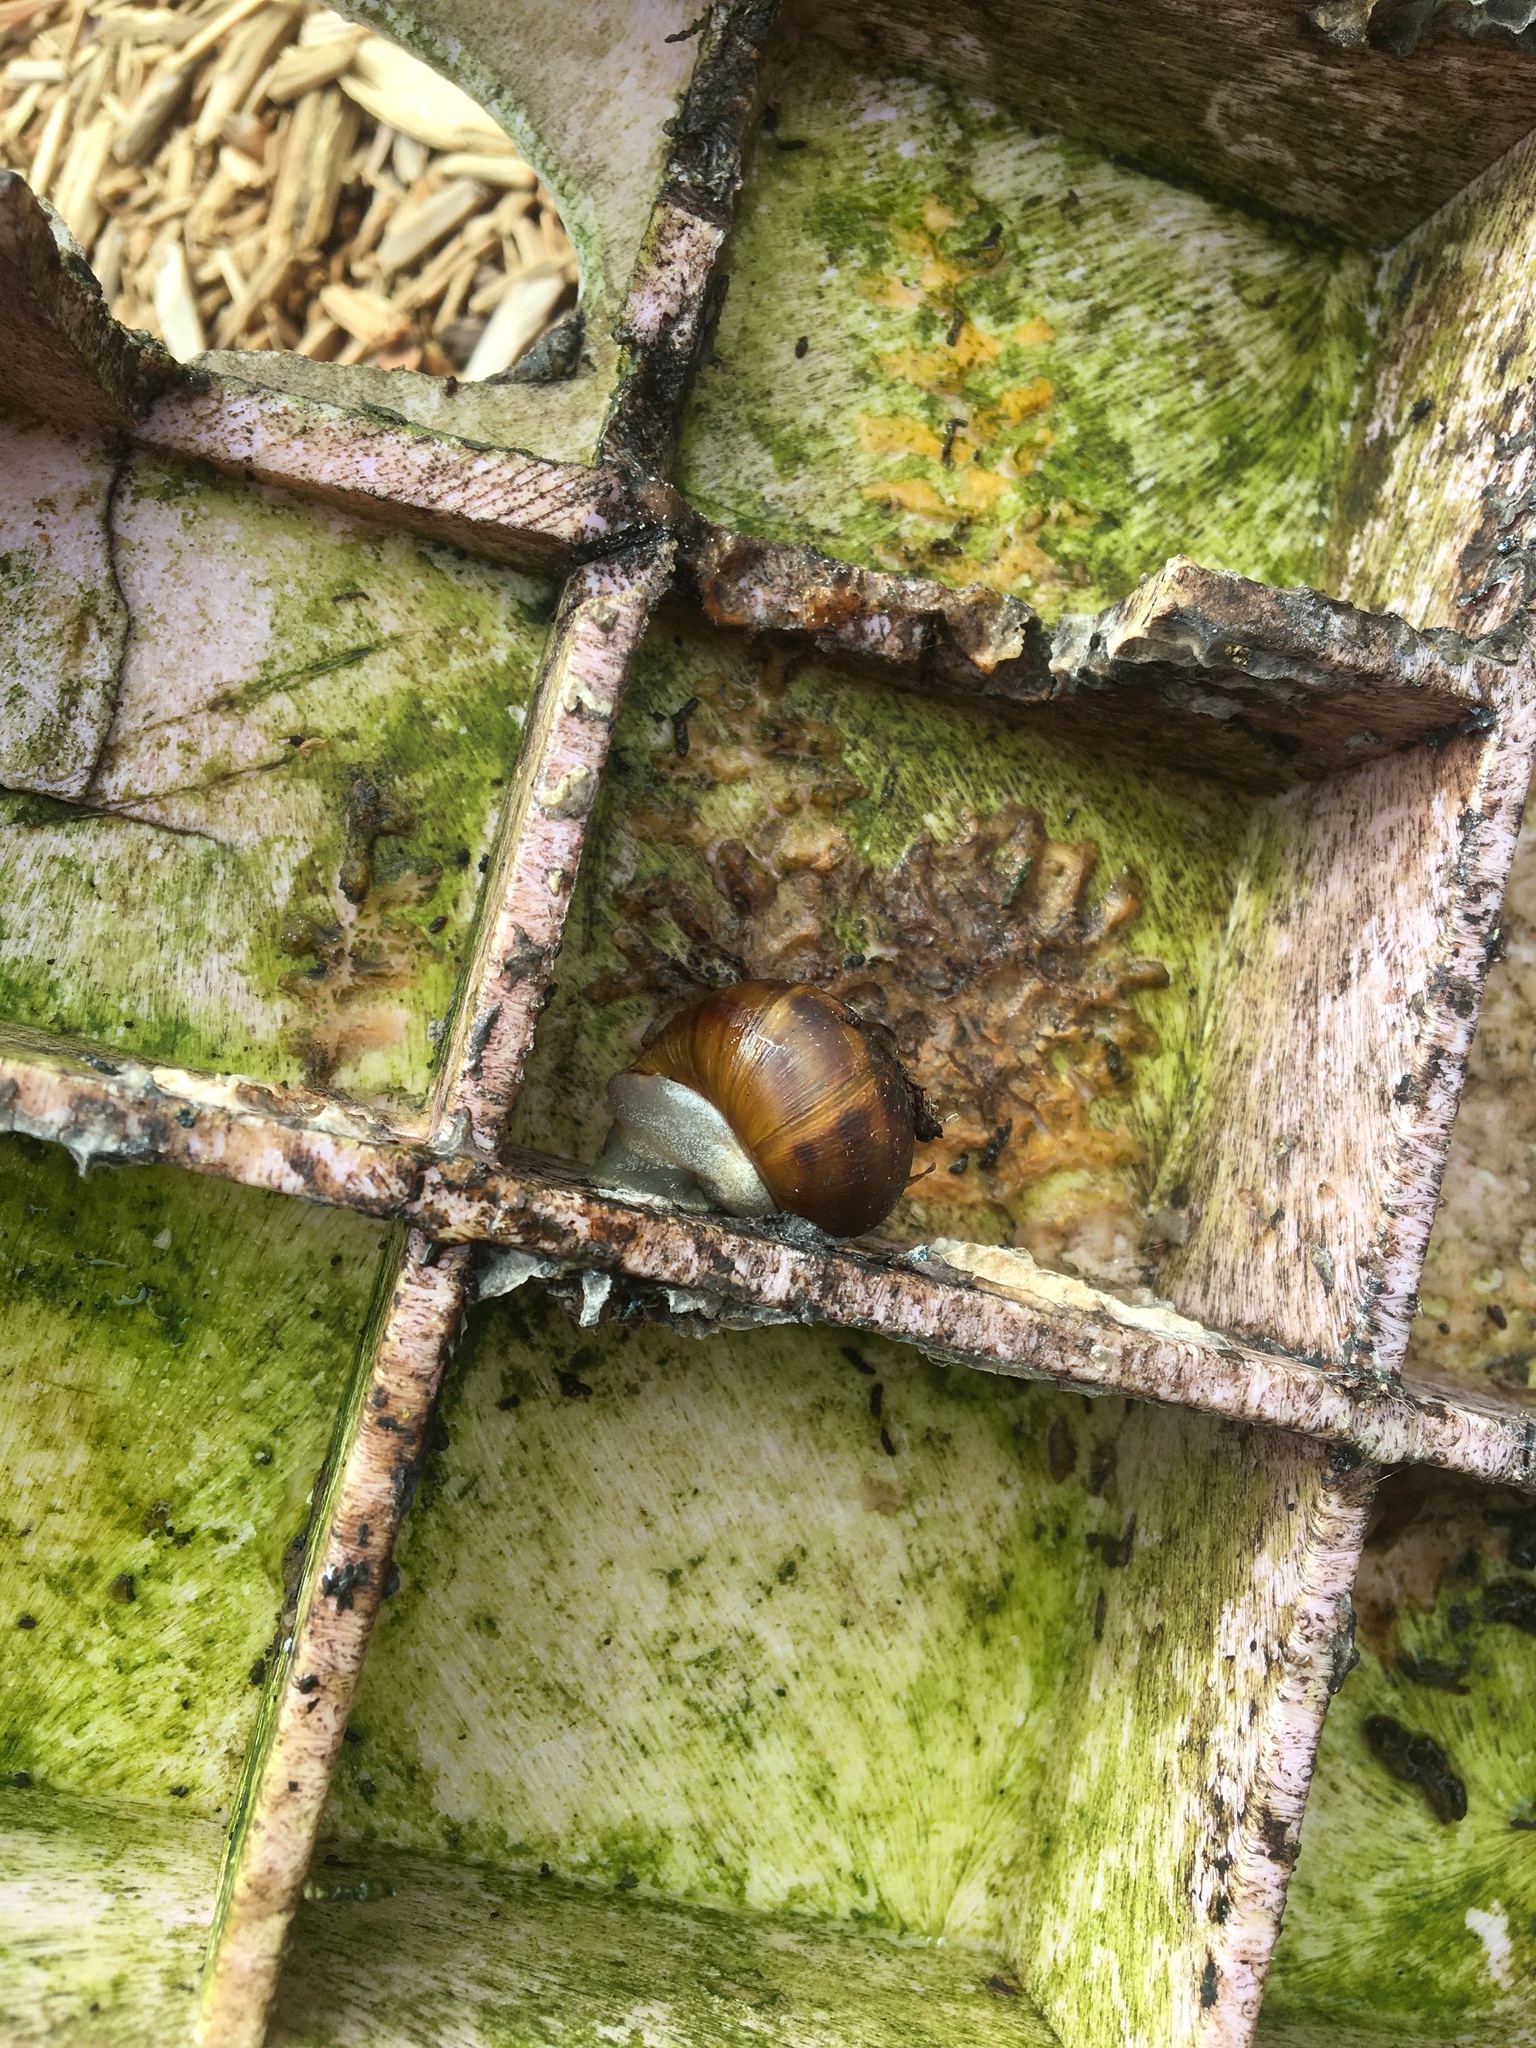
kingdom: Animalia
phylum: Mollusca
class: Gastropoda
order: Stylommatophora
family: Helicidae
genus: Cornu
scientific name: Cornu aspersum
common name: Brown garden snail
